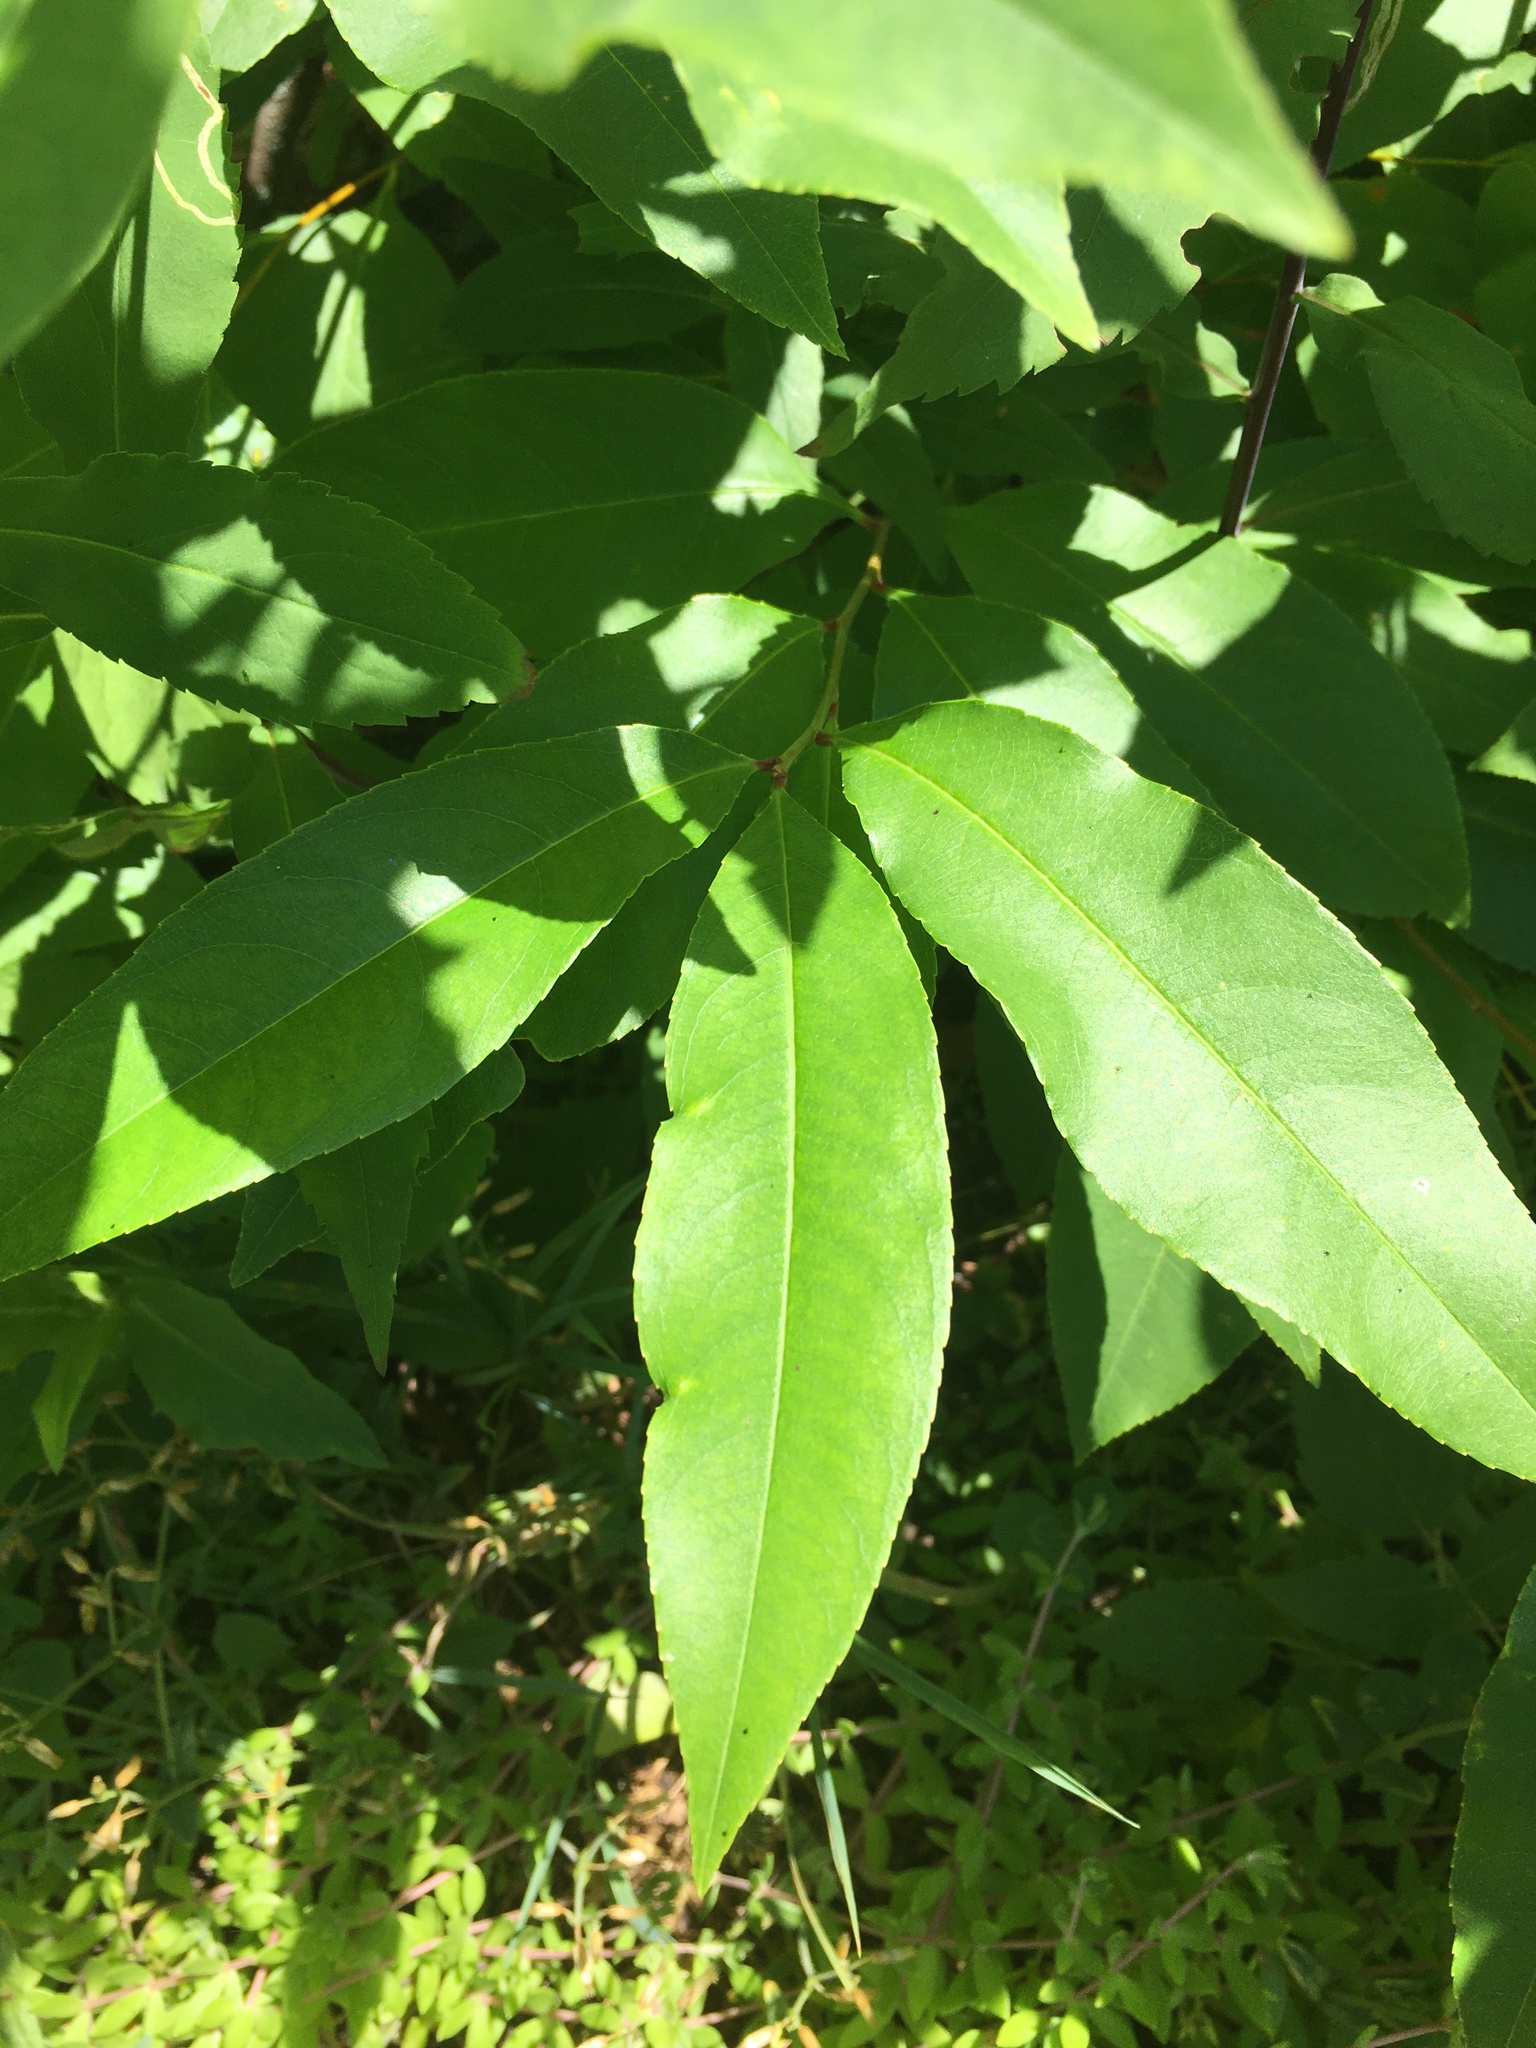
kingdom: Plantae
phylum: Tracheophyta
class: Magnoliopsida
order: Rosales
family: Rosaceae
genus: Prunus
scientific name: Prunus serotina
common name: Black cherry
